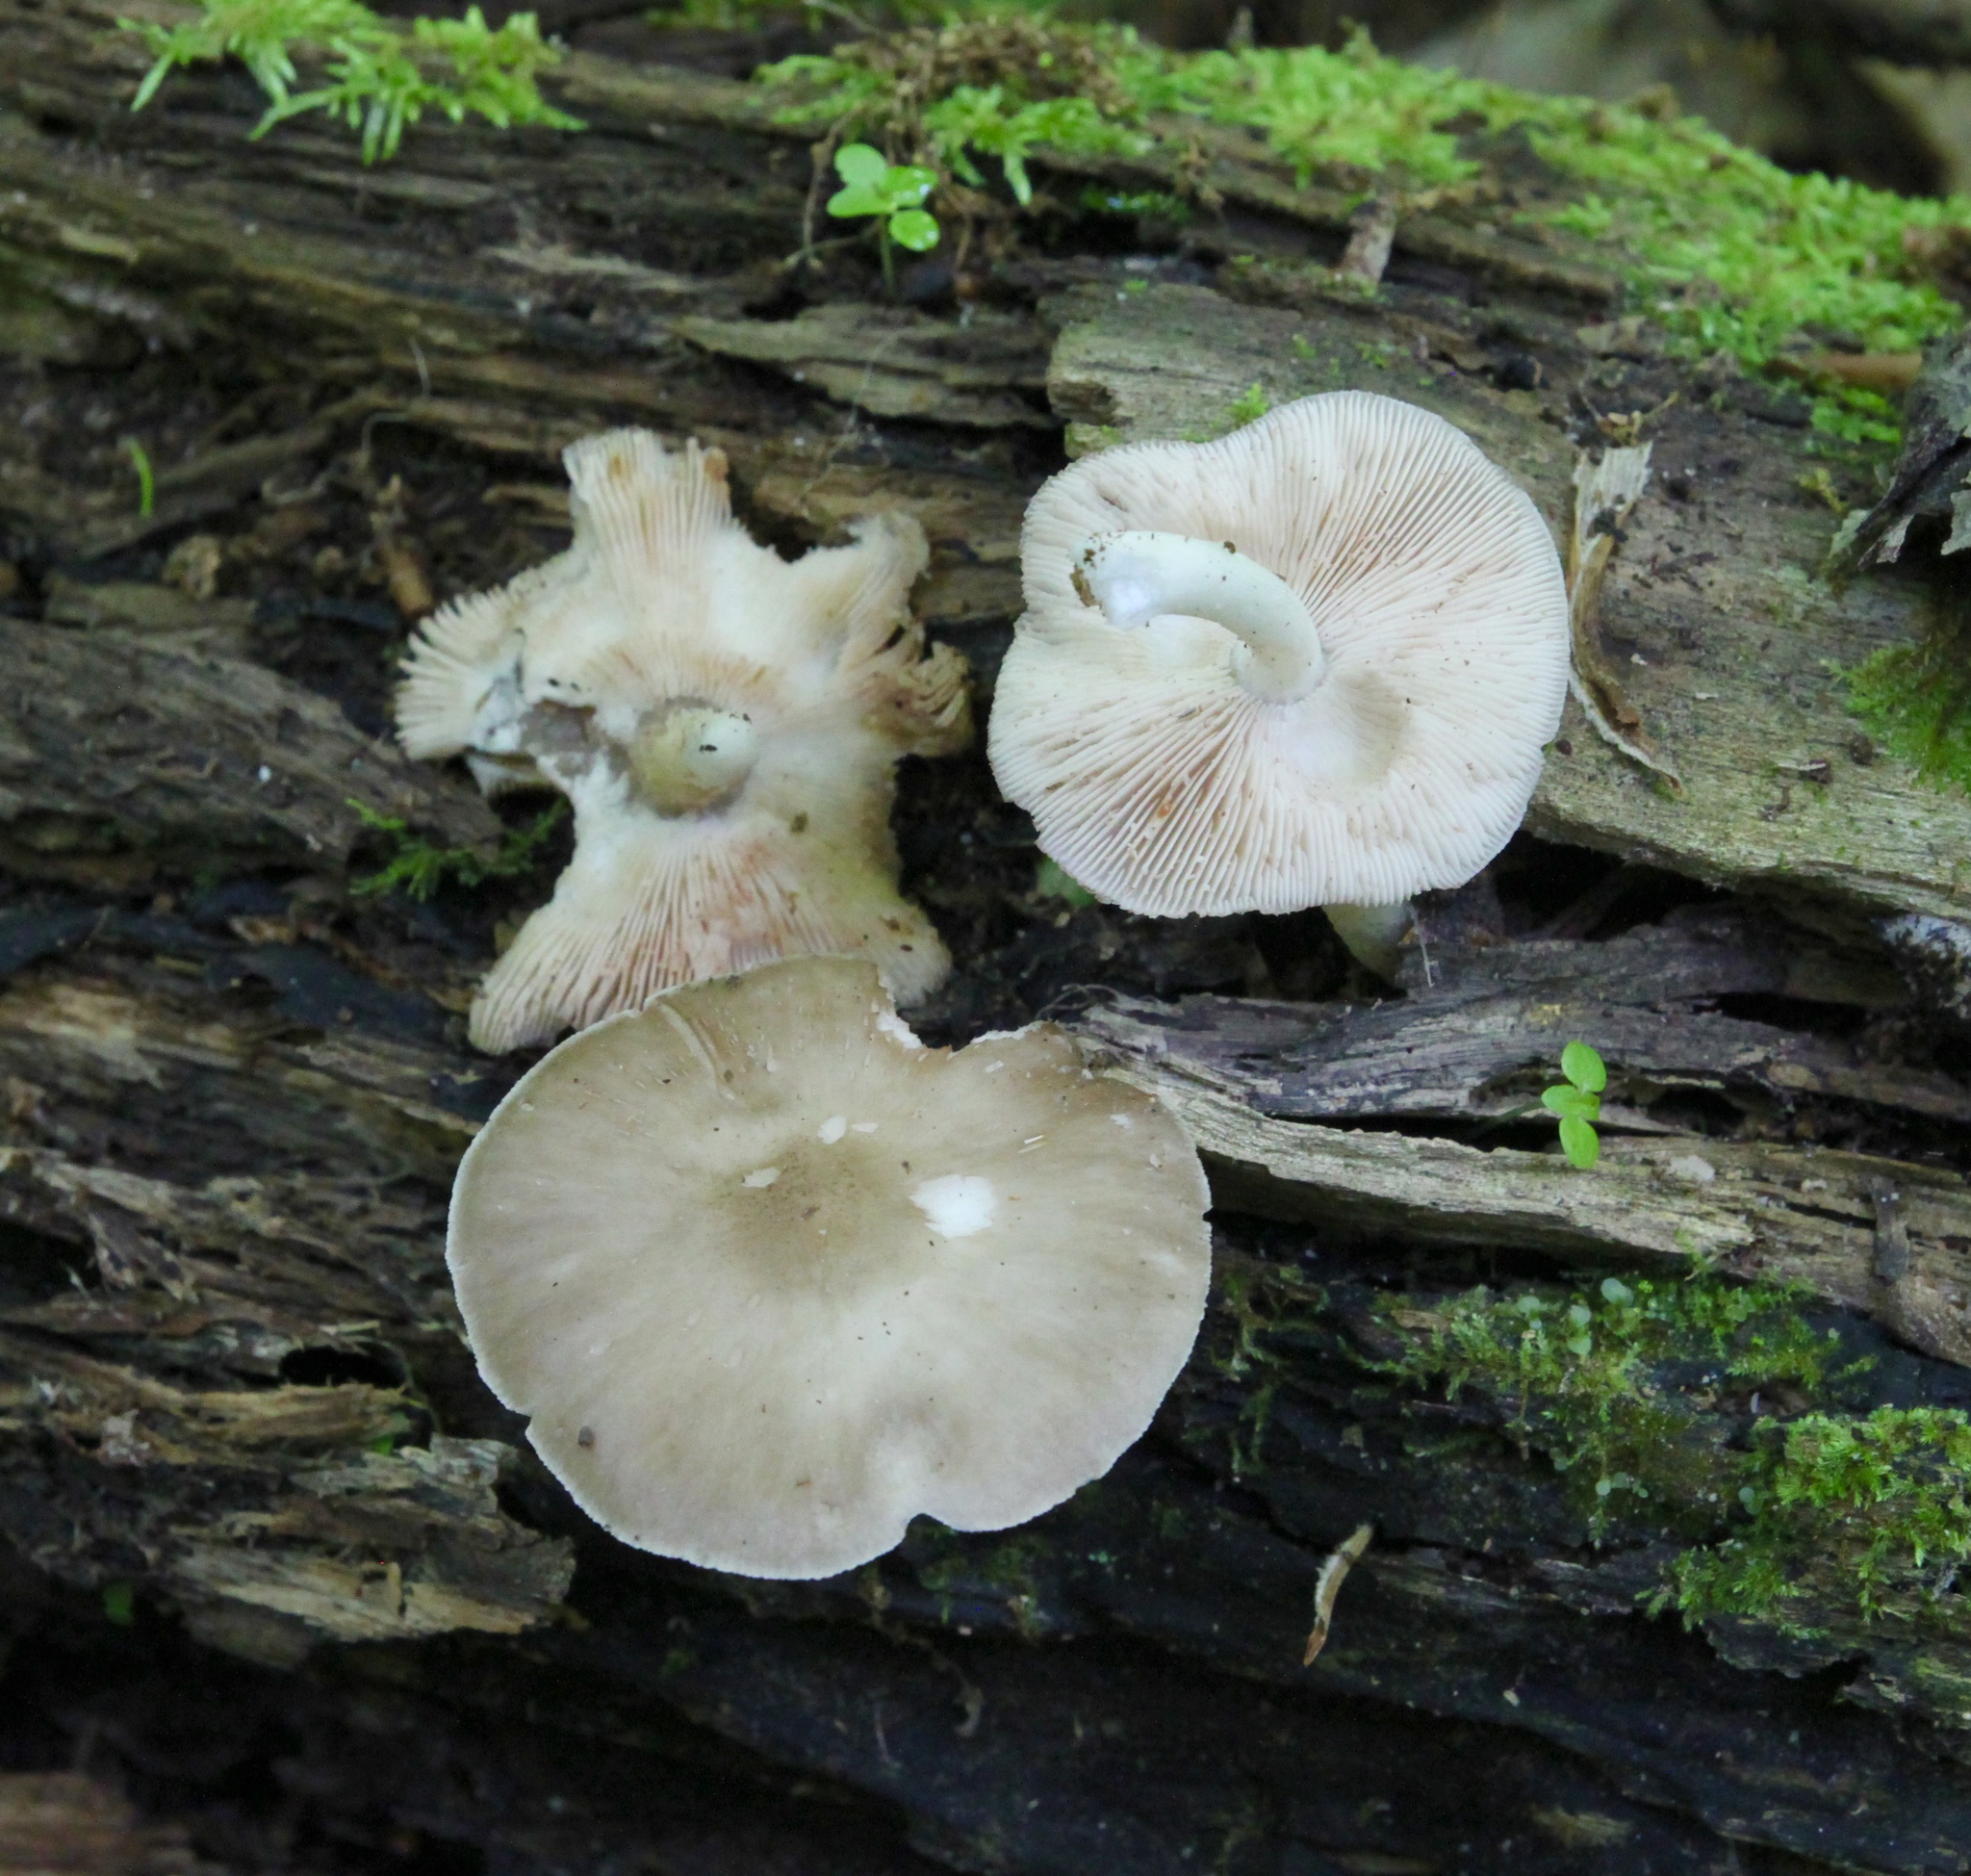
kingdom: Fungi
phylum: Basidiomycota
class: Agaricomycetes
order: Agaricales
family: Pluteaceae
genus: Pluteus
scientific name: Pluteus cervinus
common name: Deer shield
